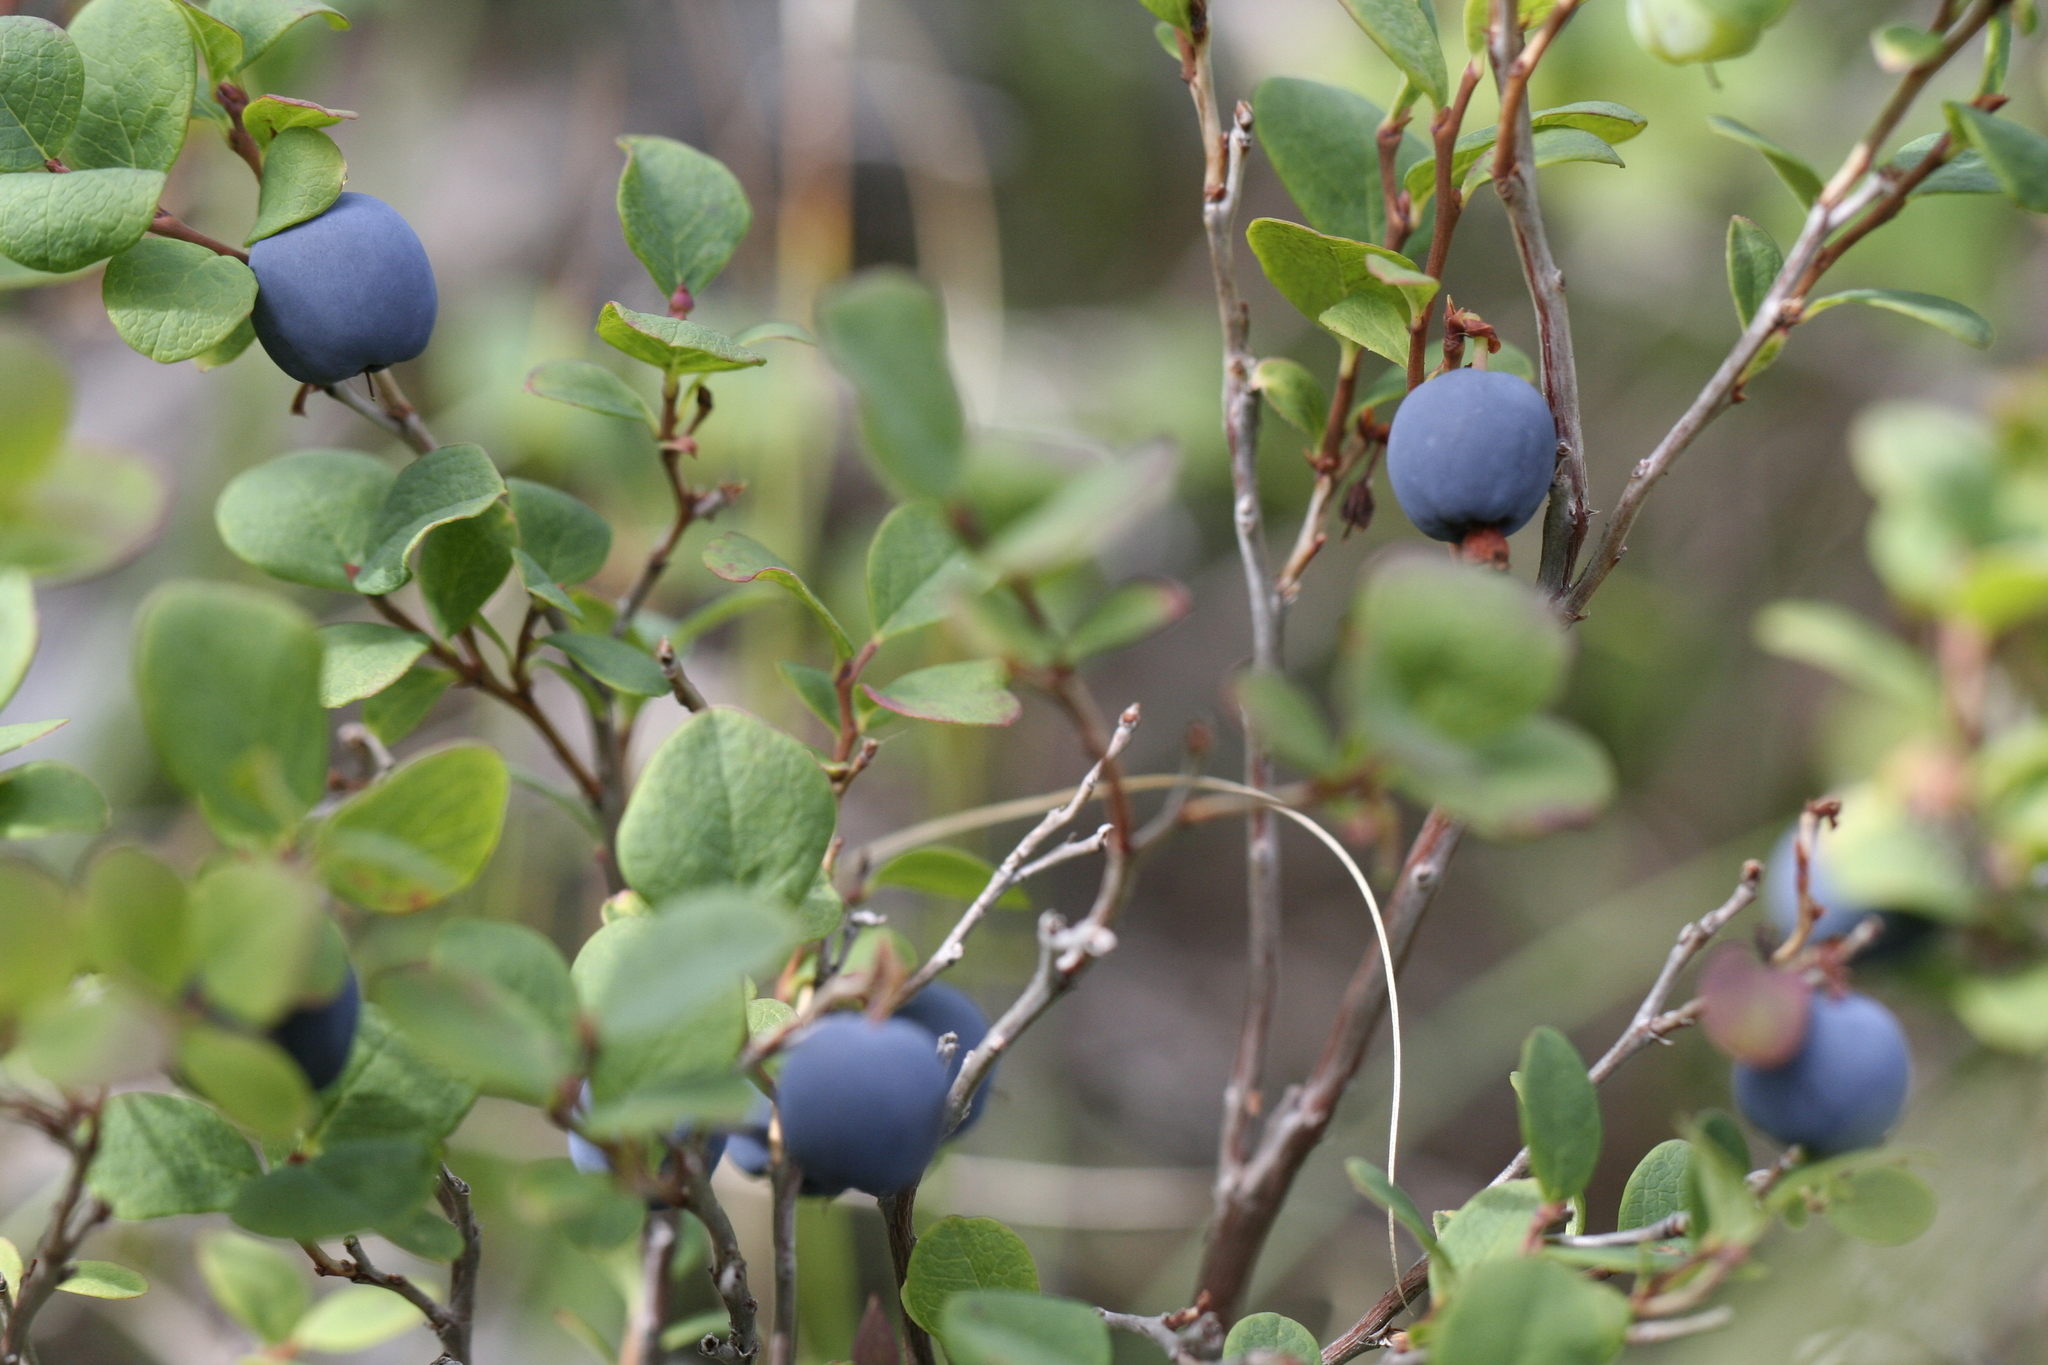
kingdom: Plantae
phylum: Tracheophyta
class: Magnoliopsida
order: Ericales
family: Ericaceae
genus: Vaccinium
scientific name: Vaccinium uliginosum
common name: Bog bilberry
